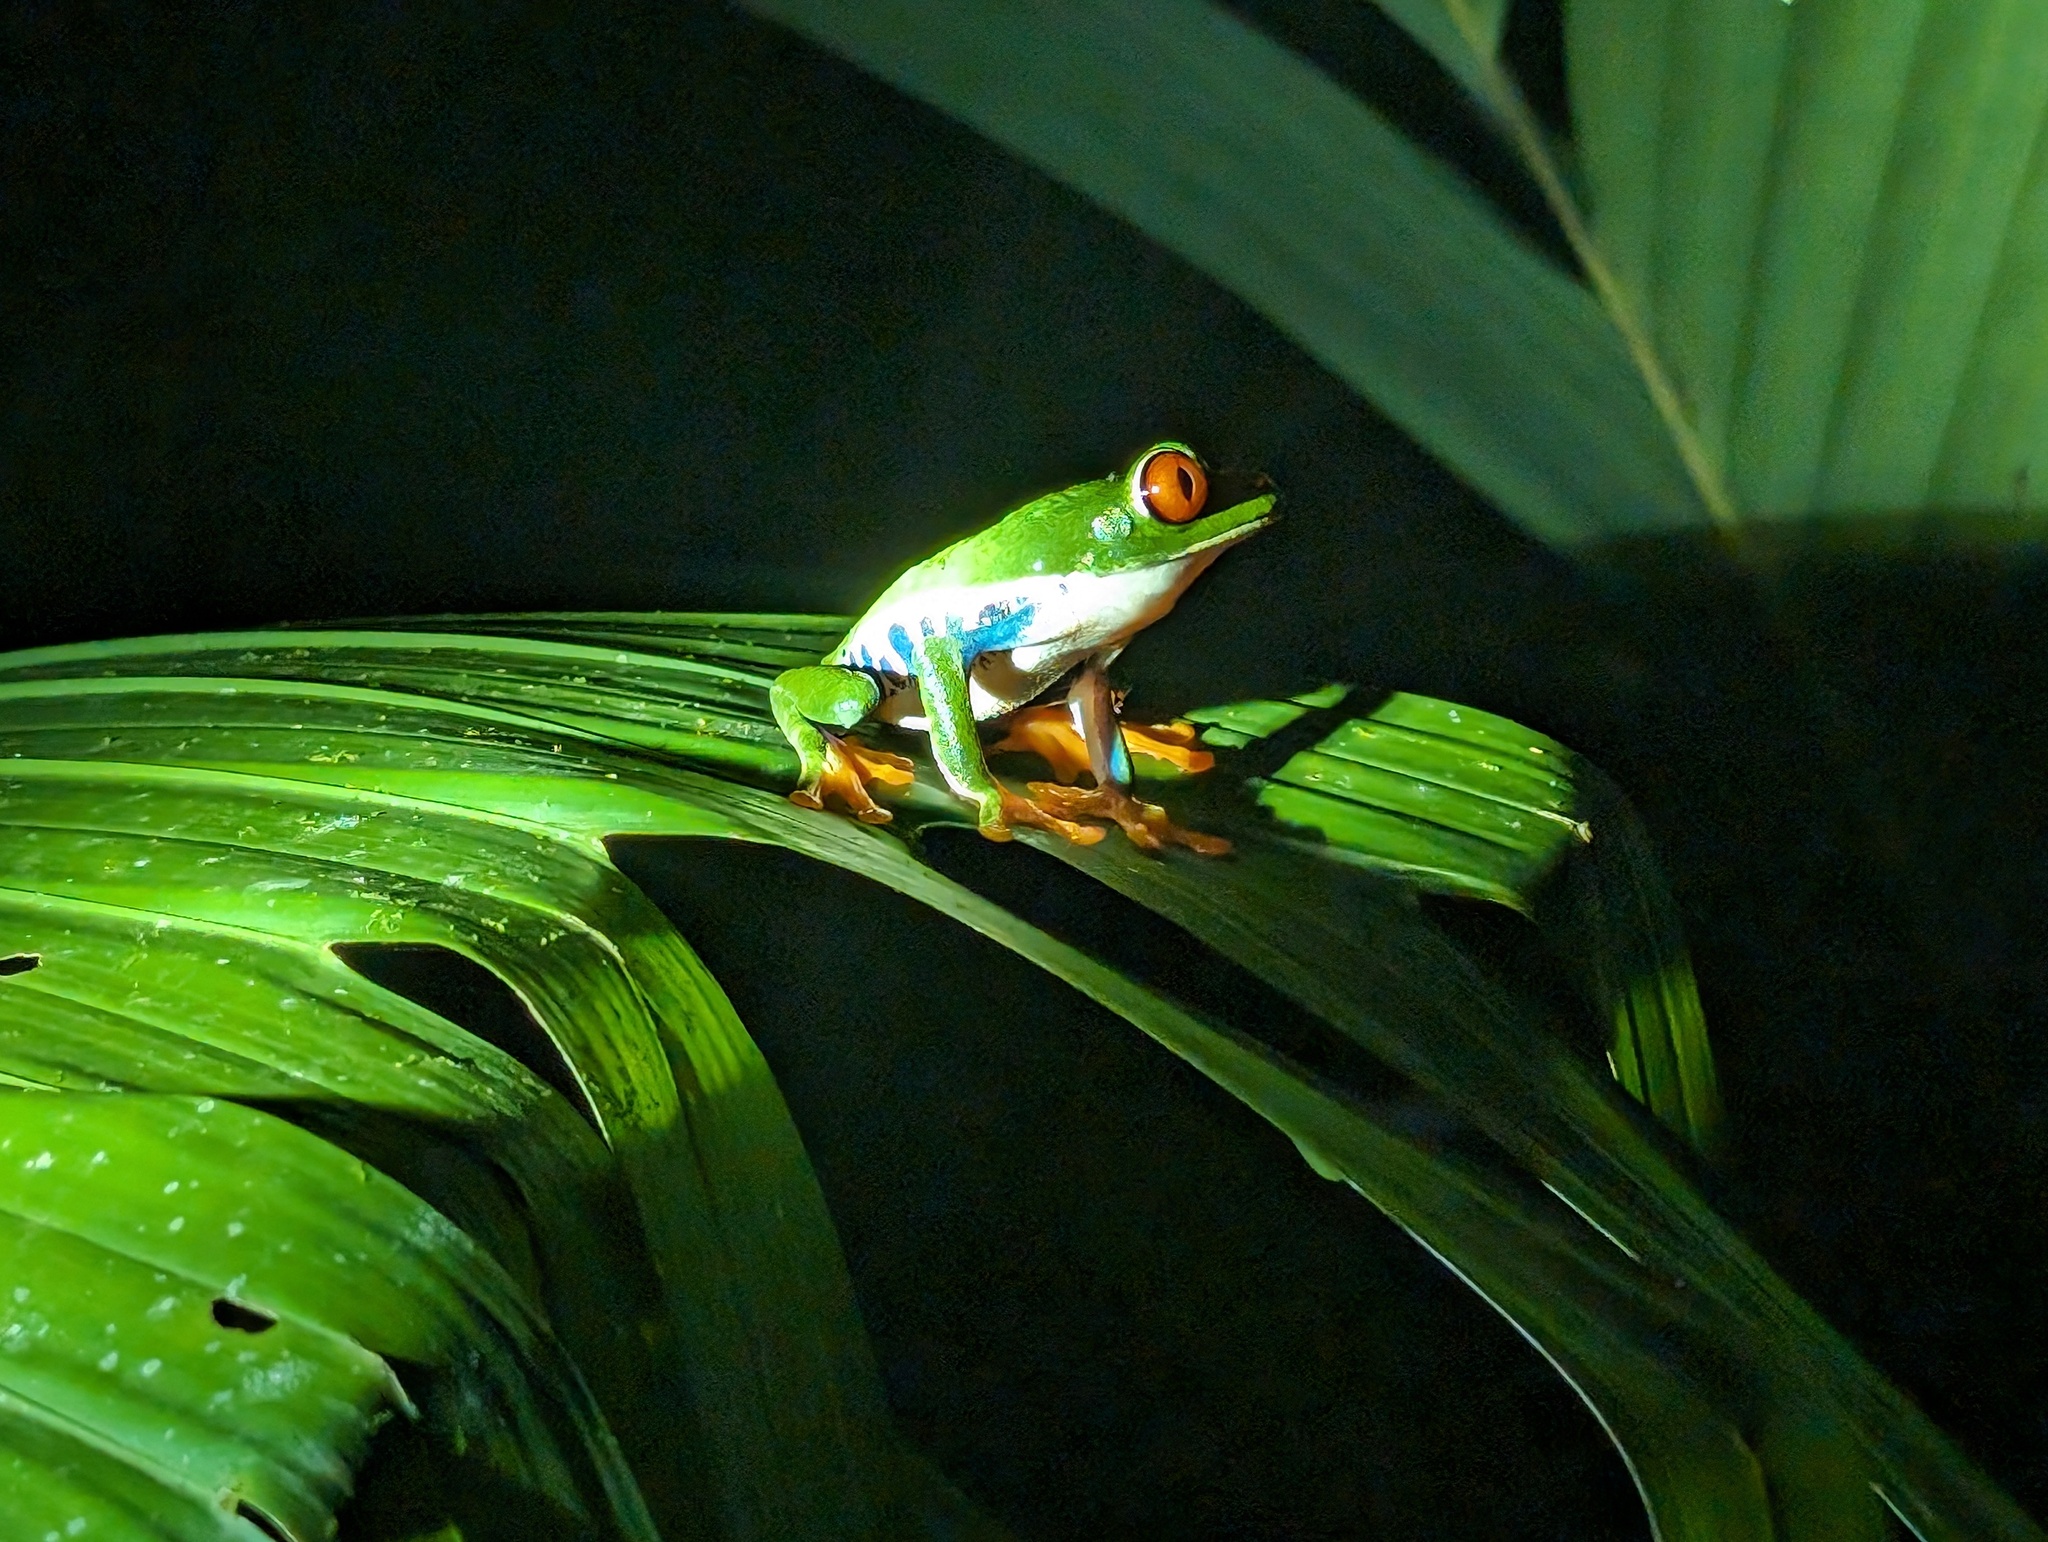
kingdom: Animalia
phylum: Chordata
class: Amphibia
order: Anura
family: Phyllomedusidae
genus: Agalychnis
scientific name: Agalychnis callidryas
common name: Red-eyed treefrog
